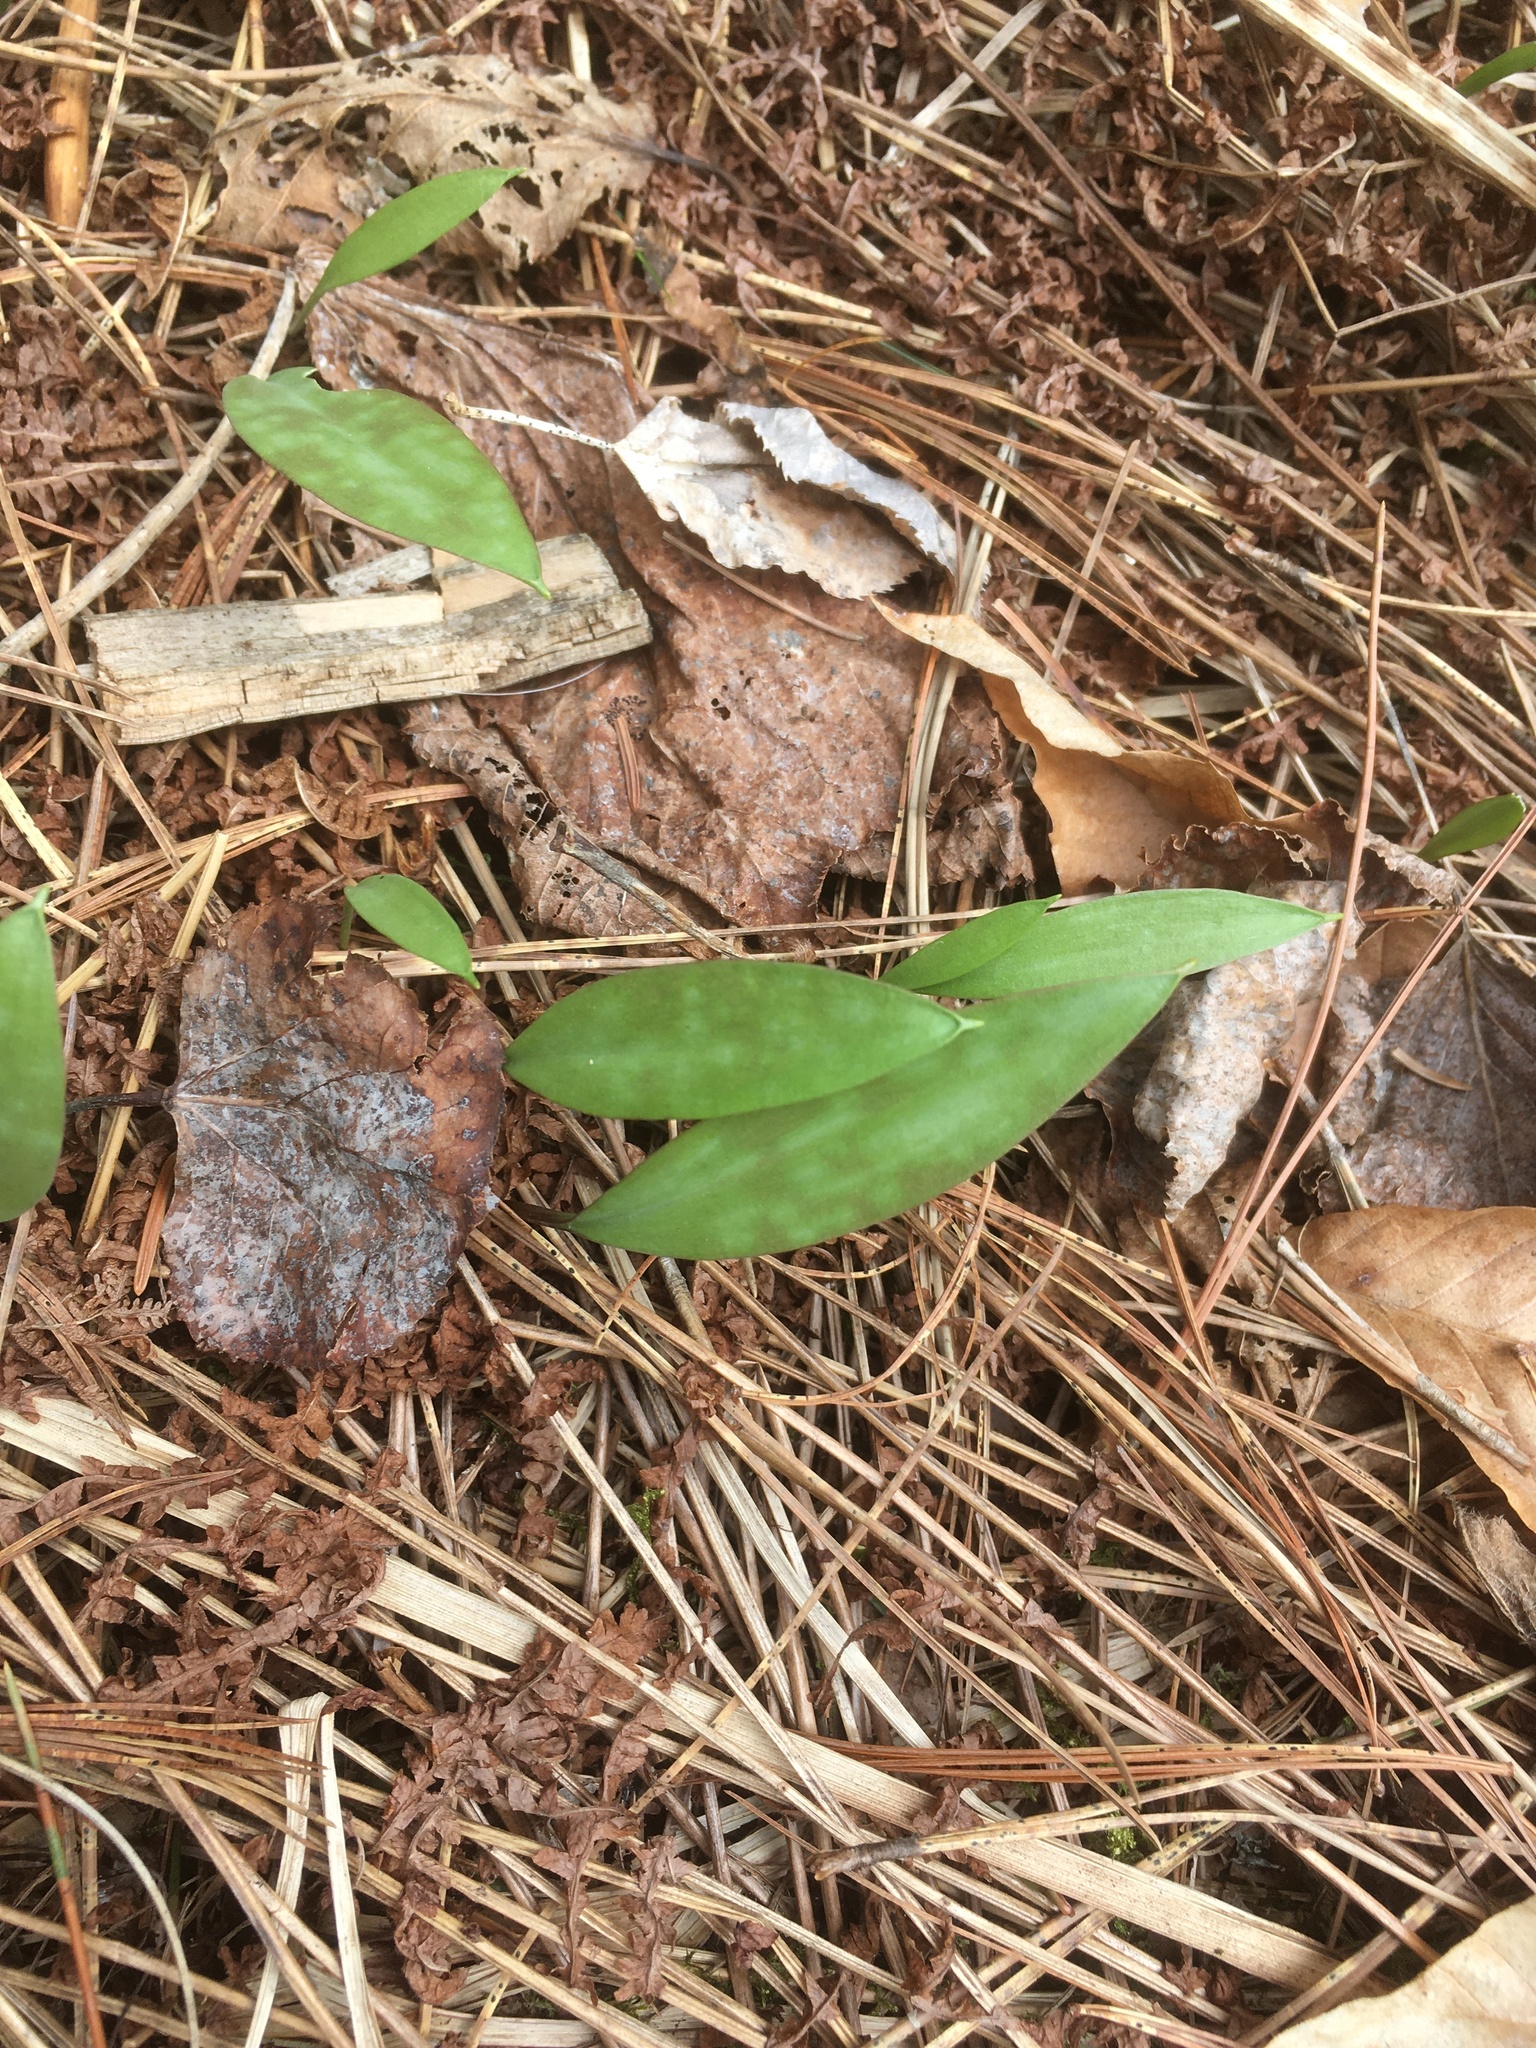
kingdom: Plantae
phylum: Tracheophyta
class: Liliopsida
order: Liliales
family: Liliaceae
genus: Erythronium
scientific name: Erythronium americanum
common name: Yellow adder's-tongue
